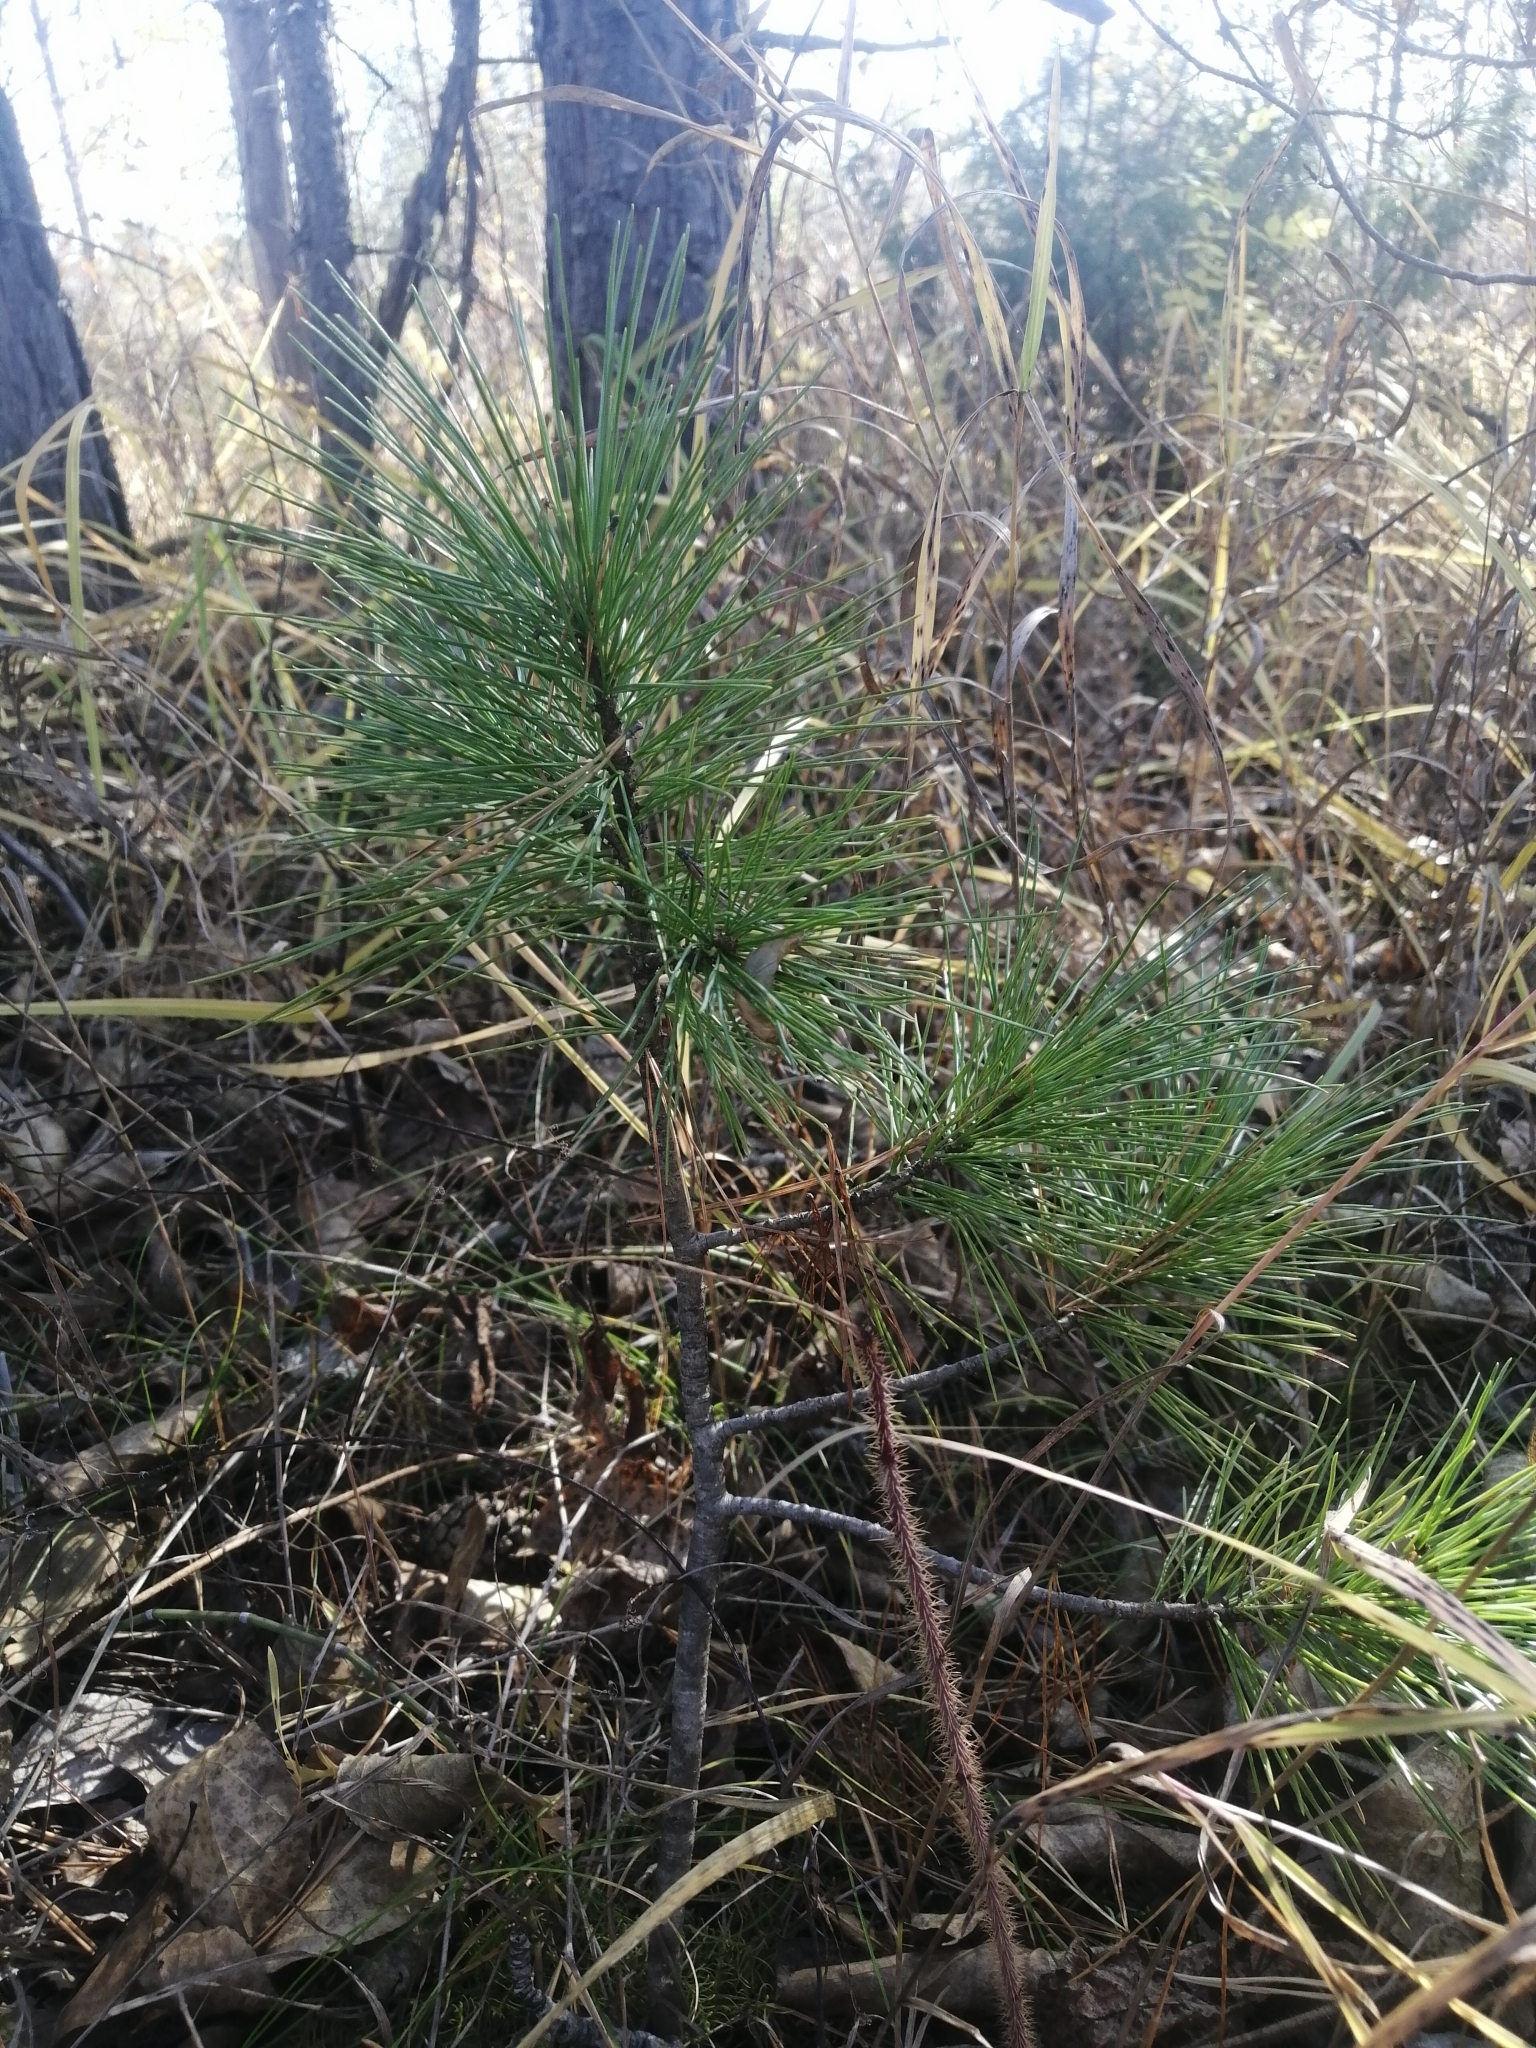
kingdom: Plantae
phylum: Tracheophyta
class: Pinopsida
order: Pinales
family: Pinaceae
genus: Pinus
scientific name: Pinus sibirica
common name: Siberian pine
